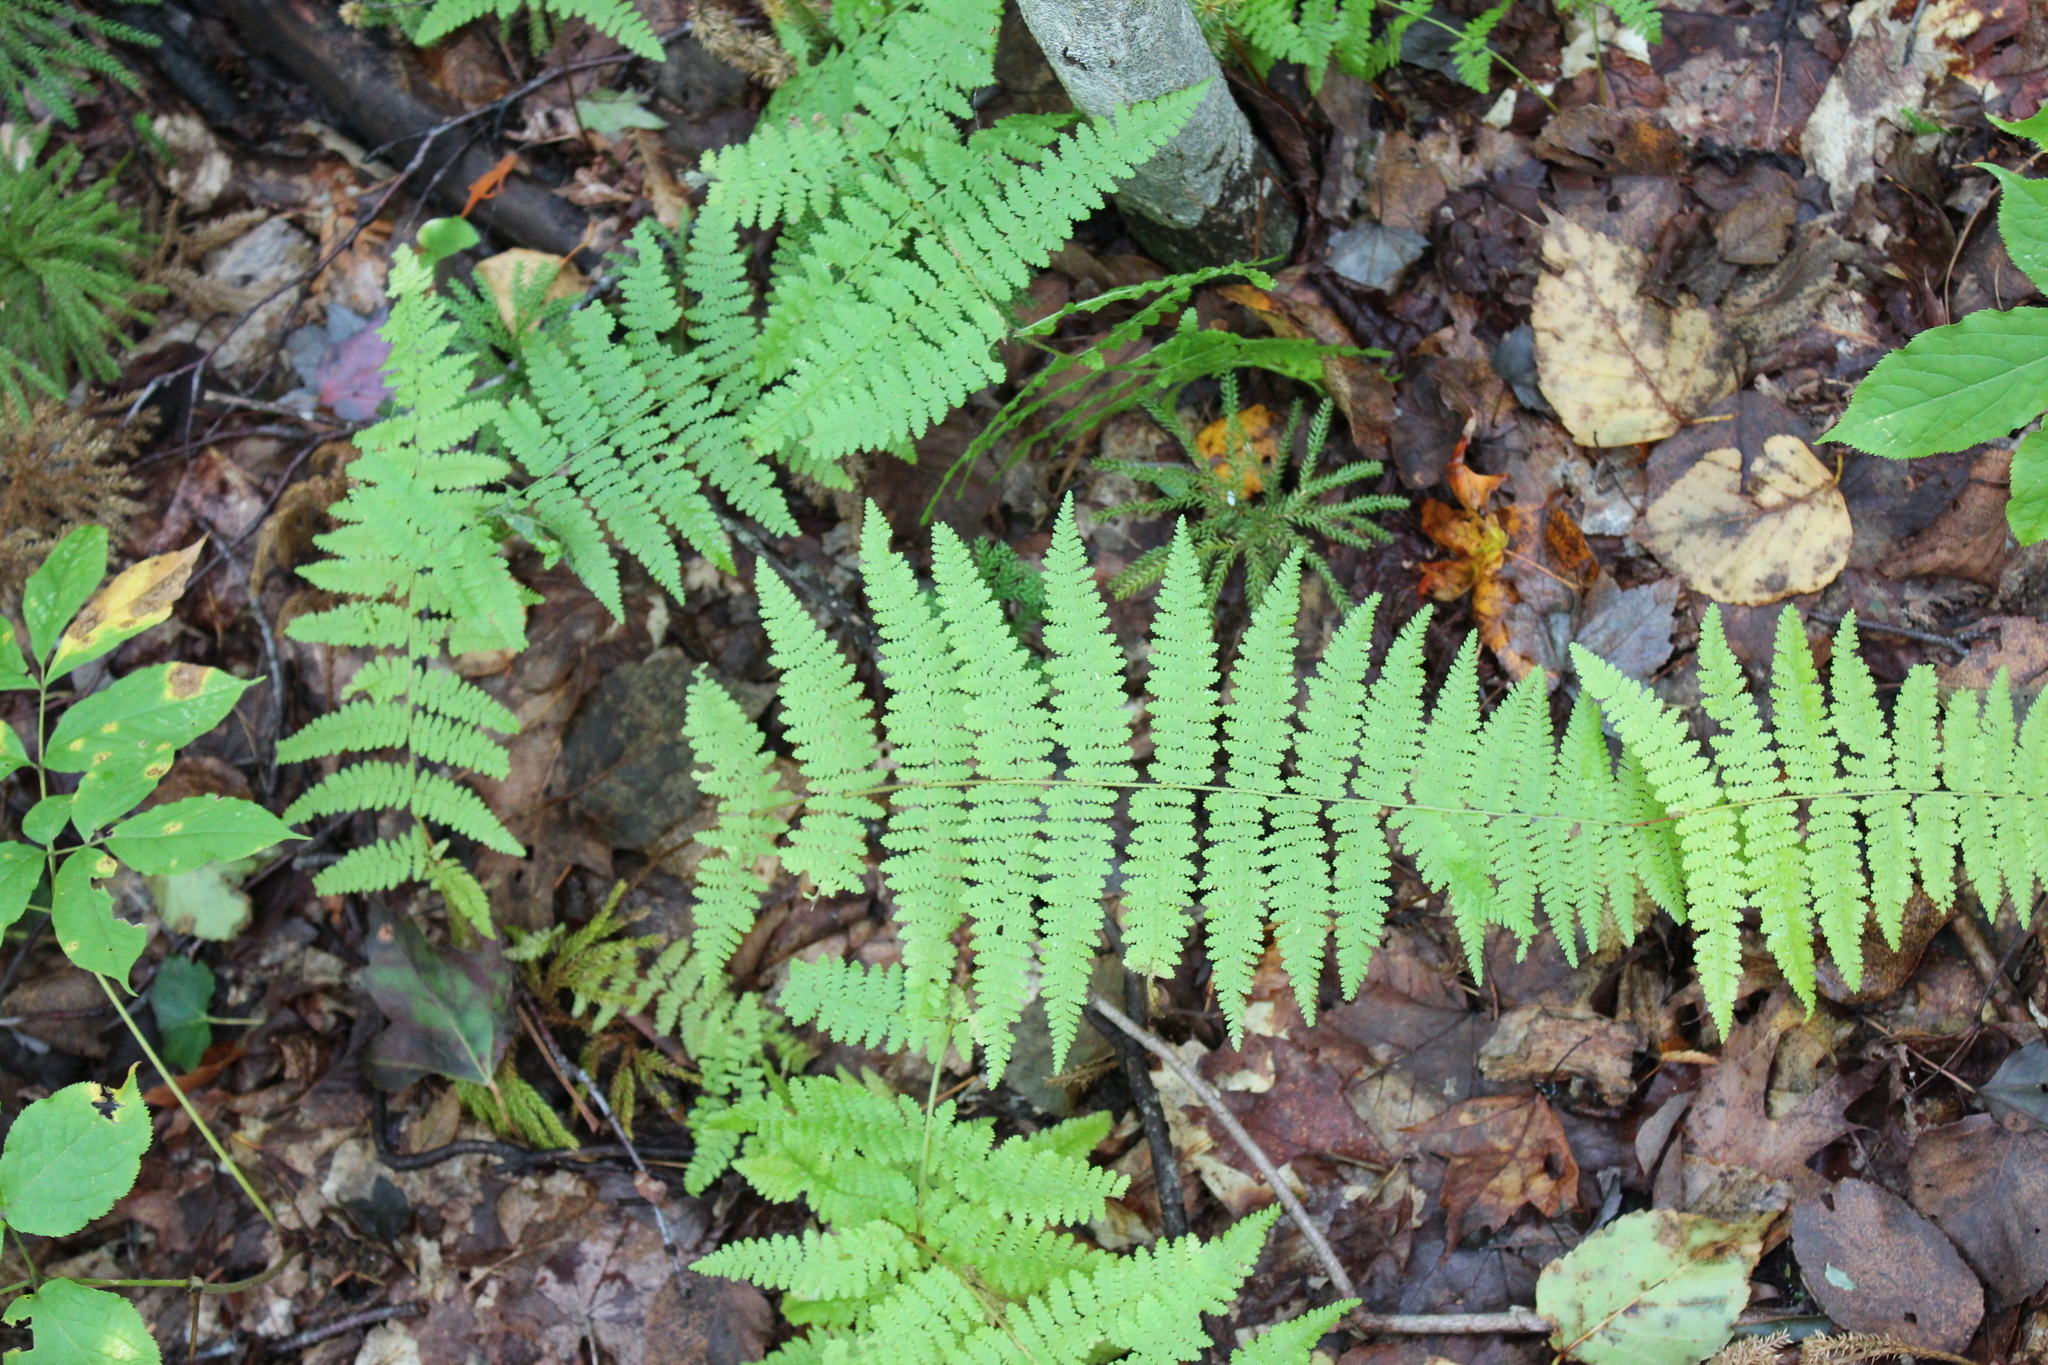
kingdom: Plantae
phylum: Tracheophyta
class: Polypodiopsida
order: Polypodiales
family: Dennstaedtiaceae
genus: Sitobolium
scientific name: Sitobolium punctilobum
